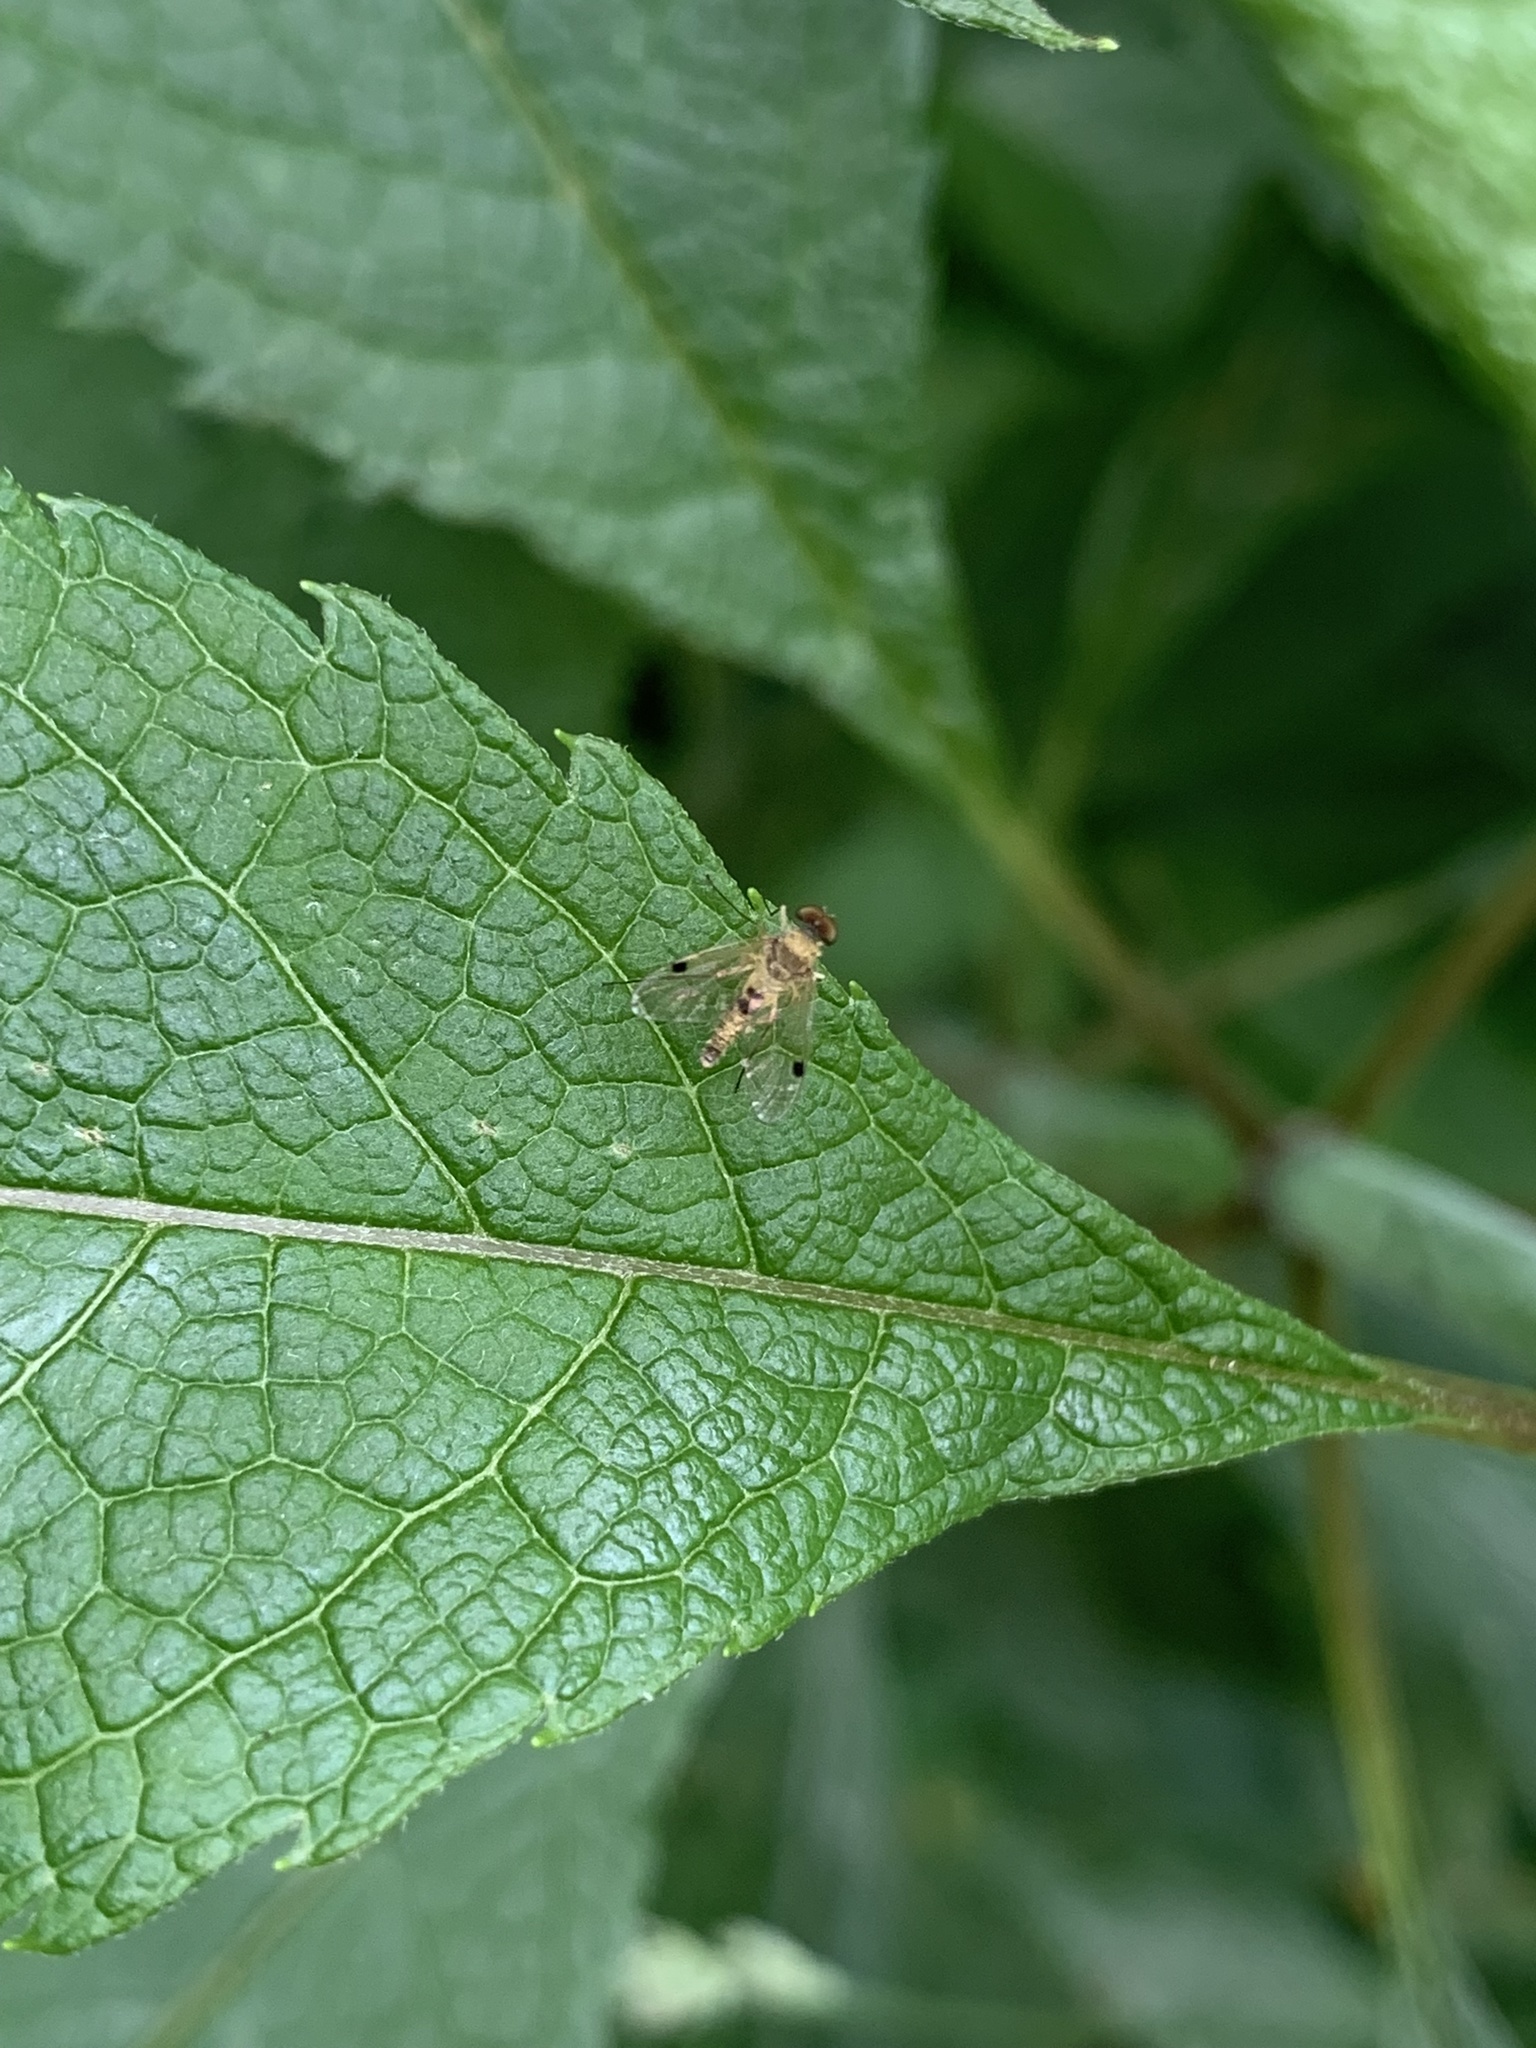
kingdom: Animalia
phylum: Arthropoda
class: Insecta
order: Diptera
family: Rhagionidae
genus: Chrysopilus
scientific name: Chrysopilus modestus
